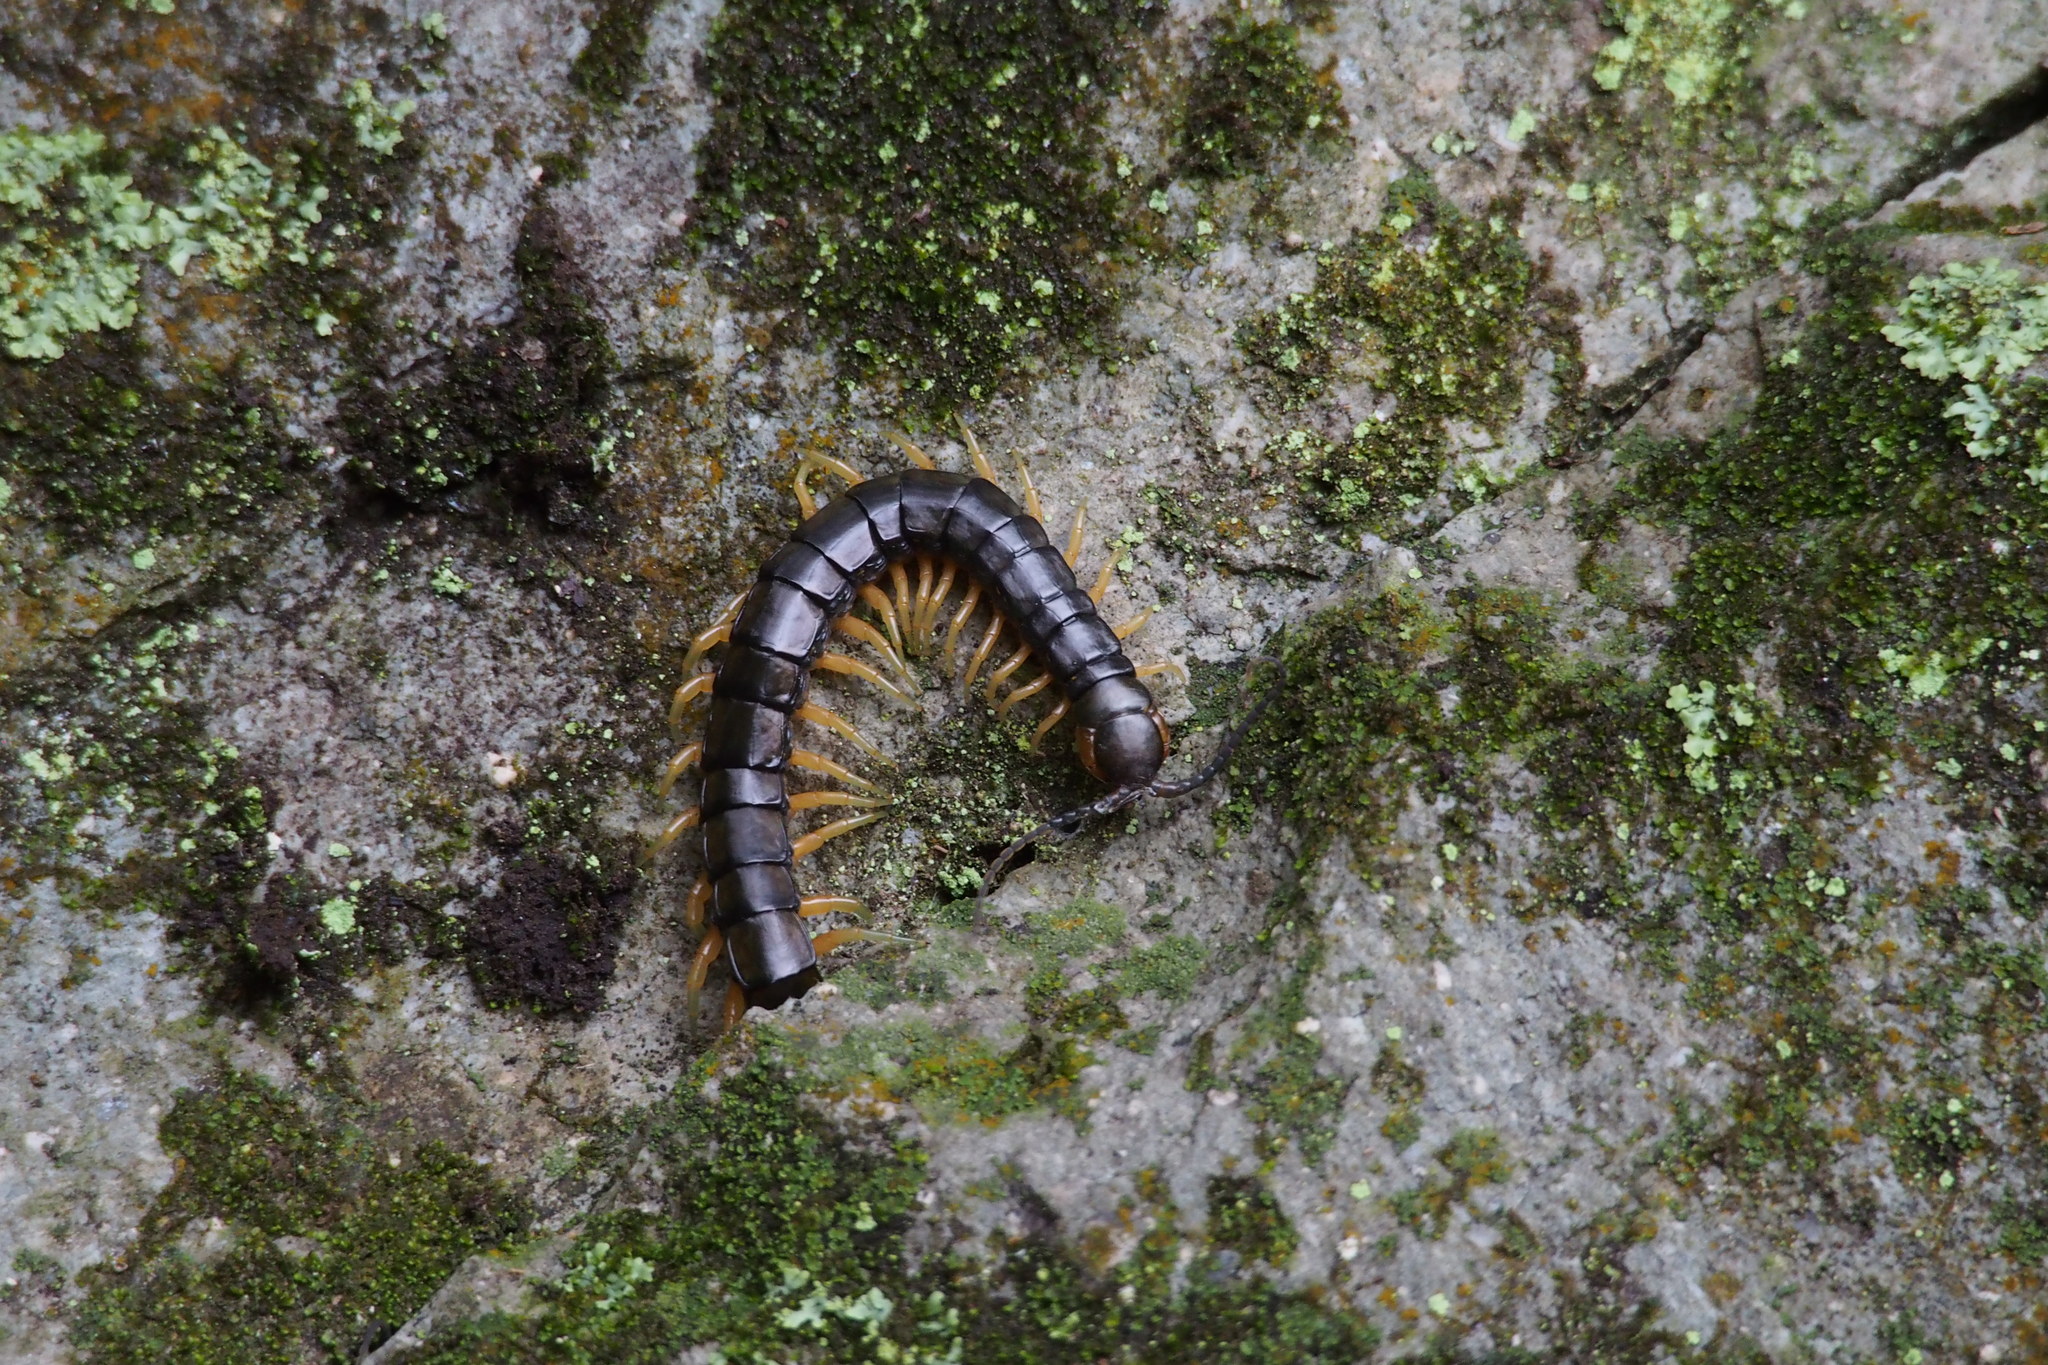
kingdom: Animalia
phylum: Arthropoda
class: Chilopoda
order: Scolopendromorpha
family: Scolopendridae
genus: Scolopendra
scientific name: Scolopendra japonica
